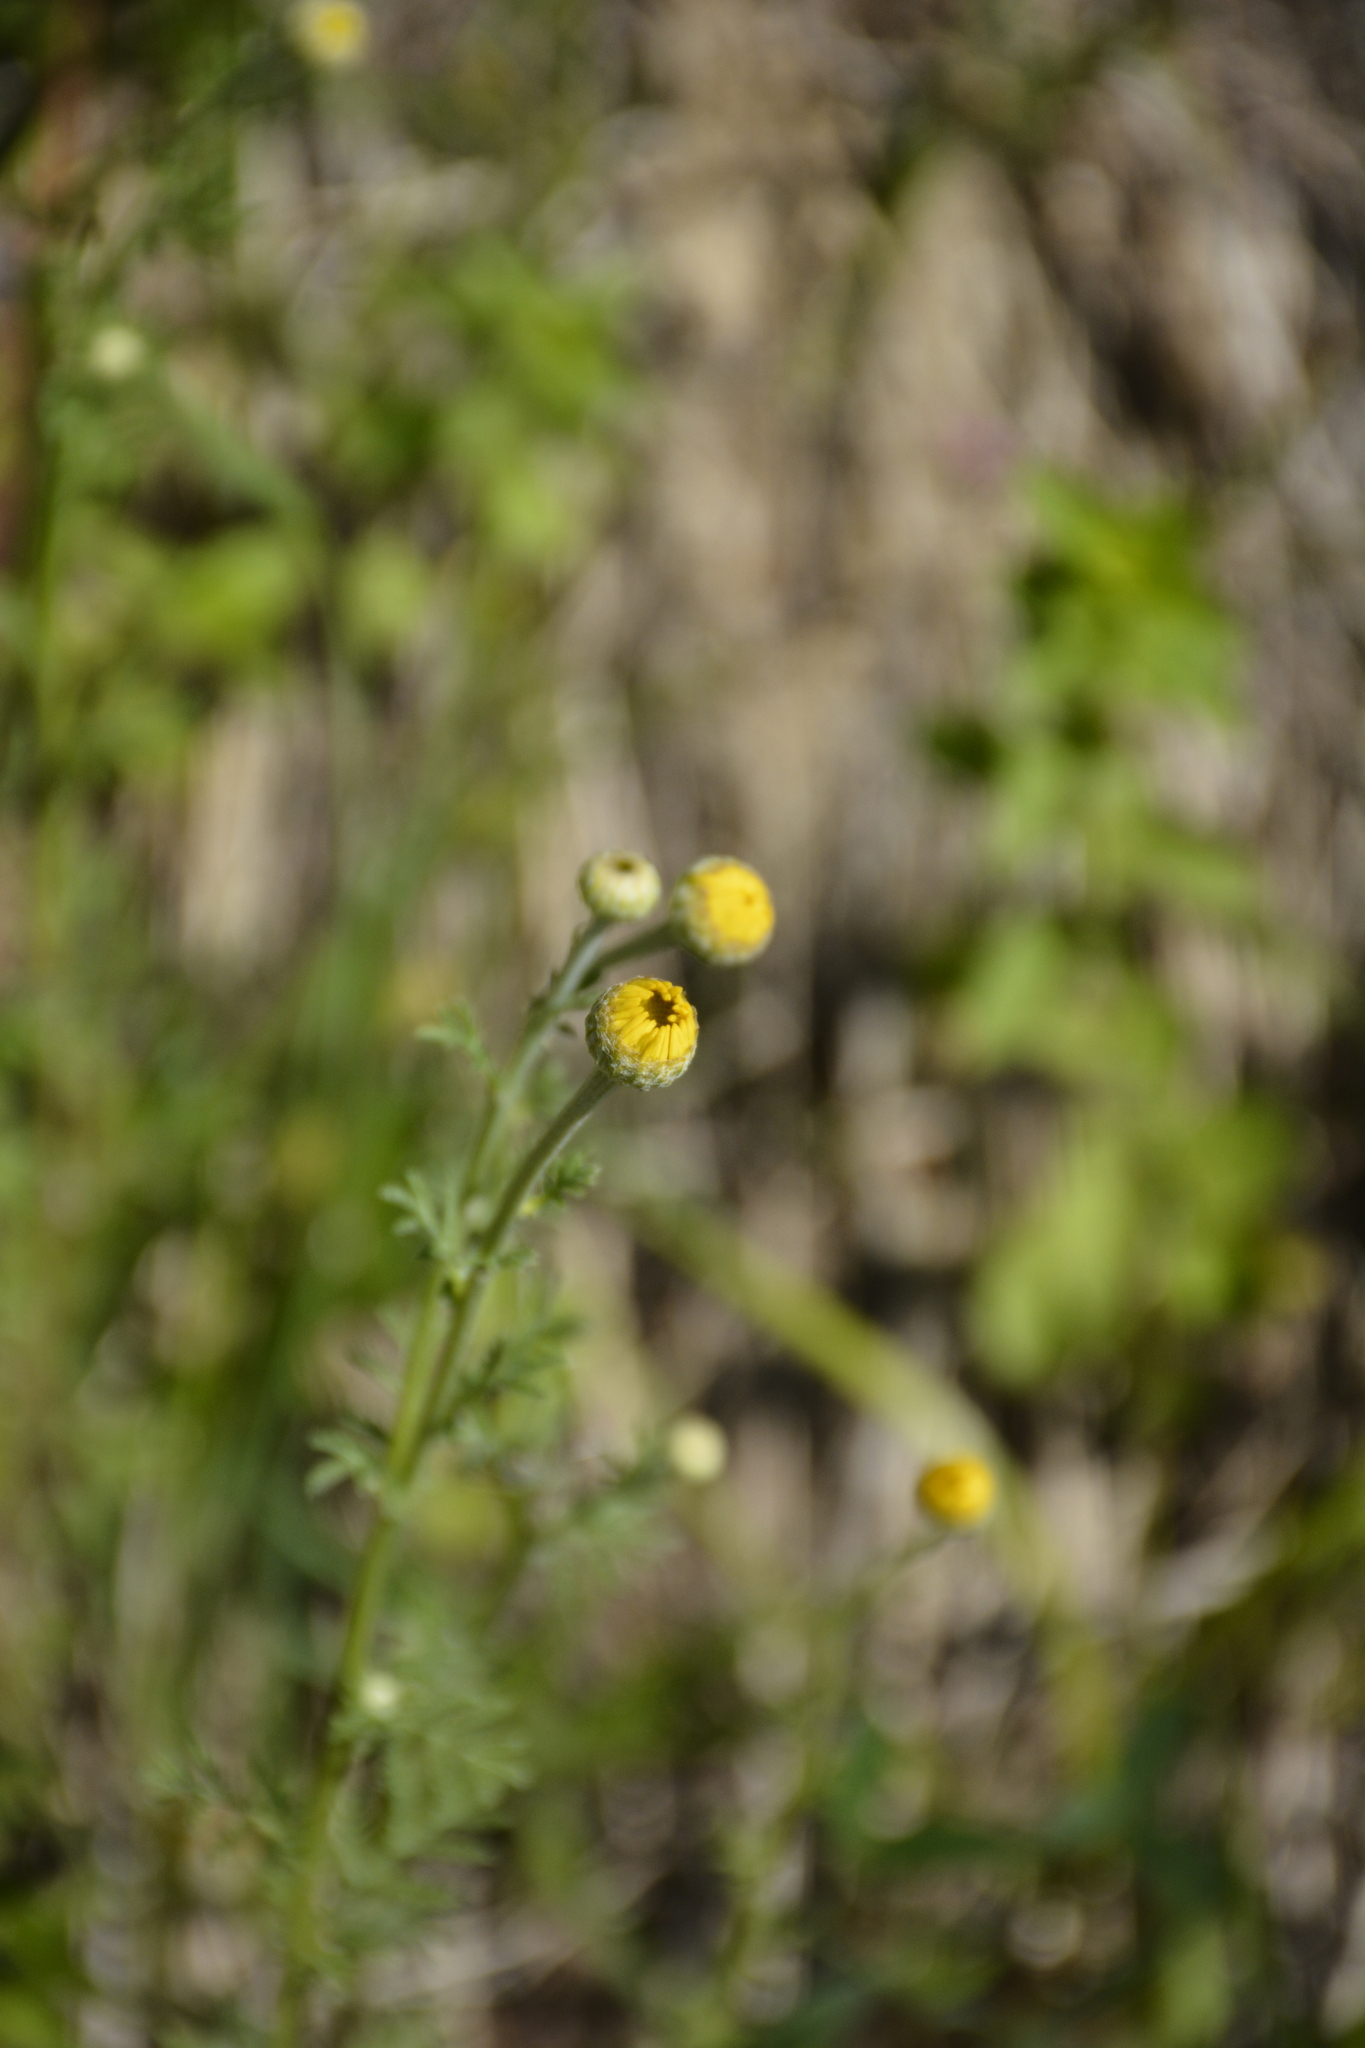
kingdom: Plantae
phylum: Tracheophyta
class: Magnoliopsida
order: Asterales
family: Asteraceae
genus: Cota
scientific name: Cota tinctoria
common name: Golden chamomile
